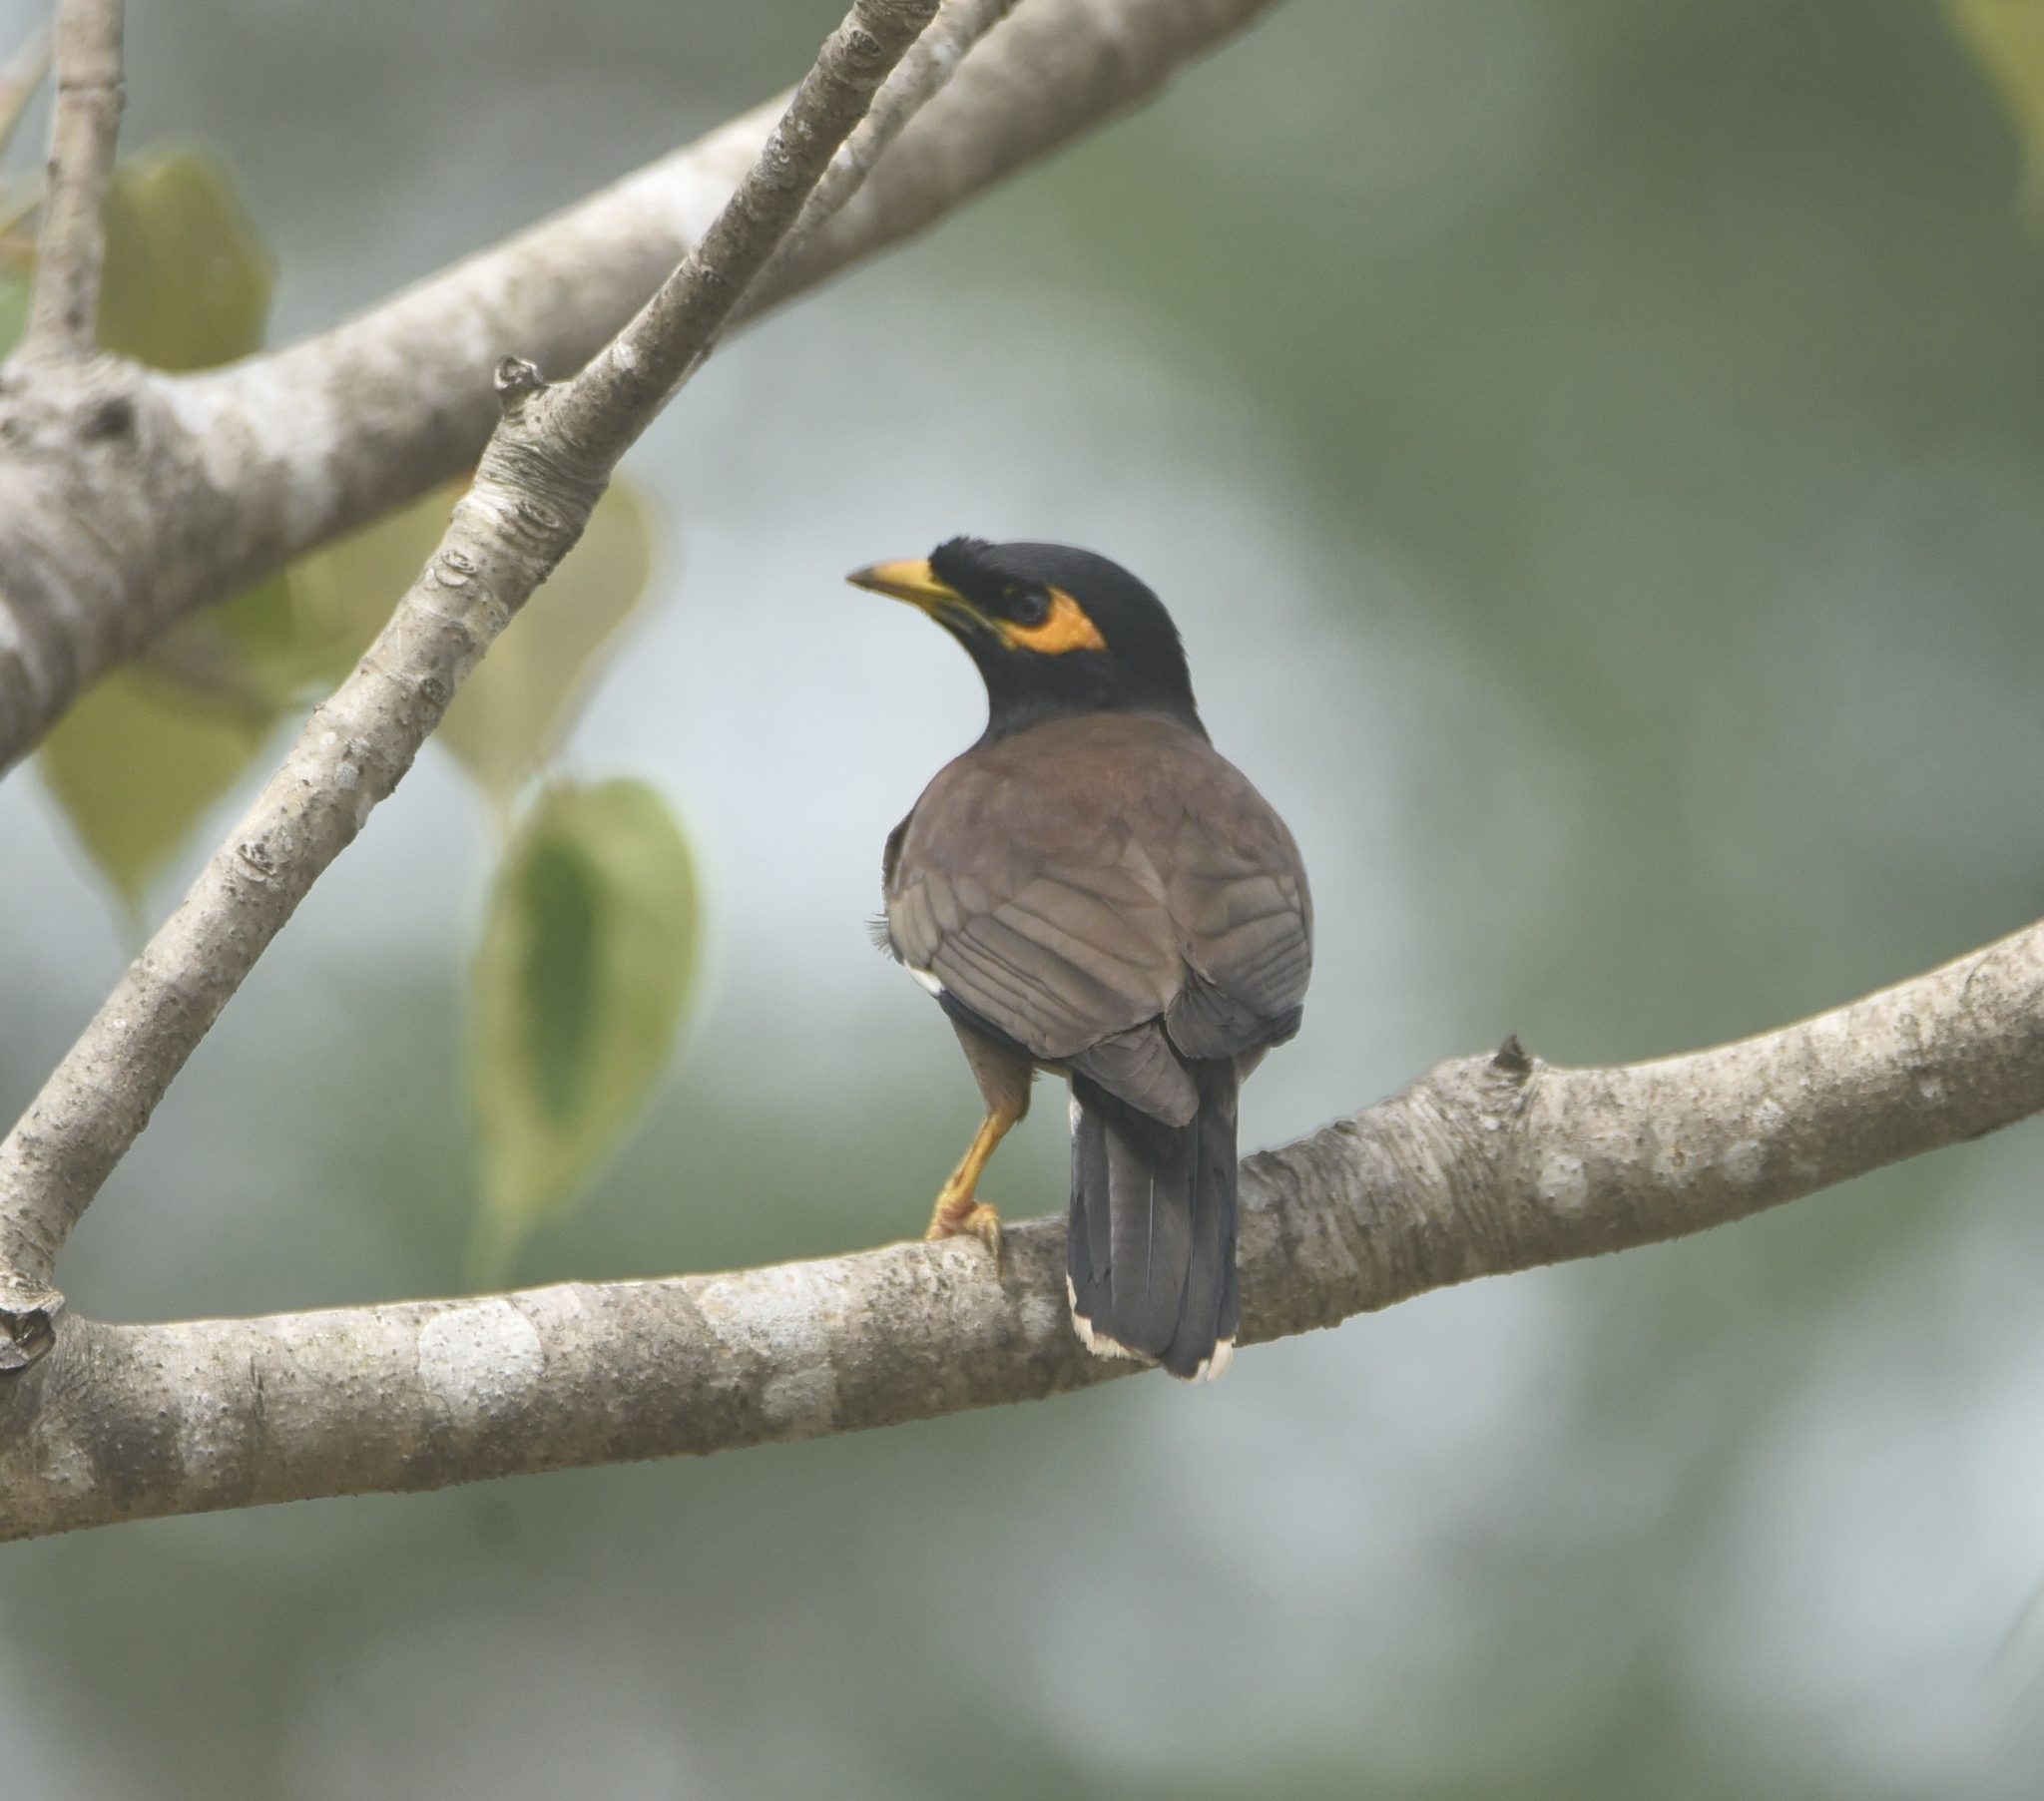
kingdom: Animalia
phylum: Chordata
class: Aves
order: Passeriformes
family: Sturnidae
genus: Acridotheres
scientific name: Acridotheres tristis
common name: Common myna
